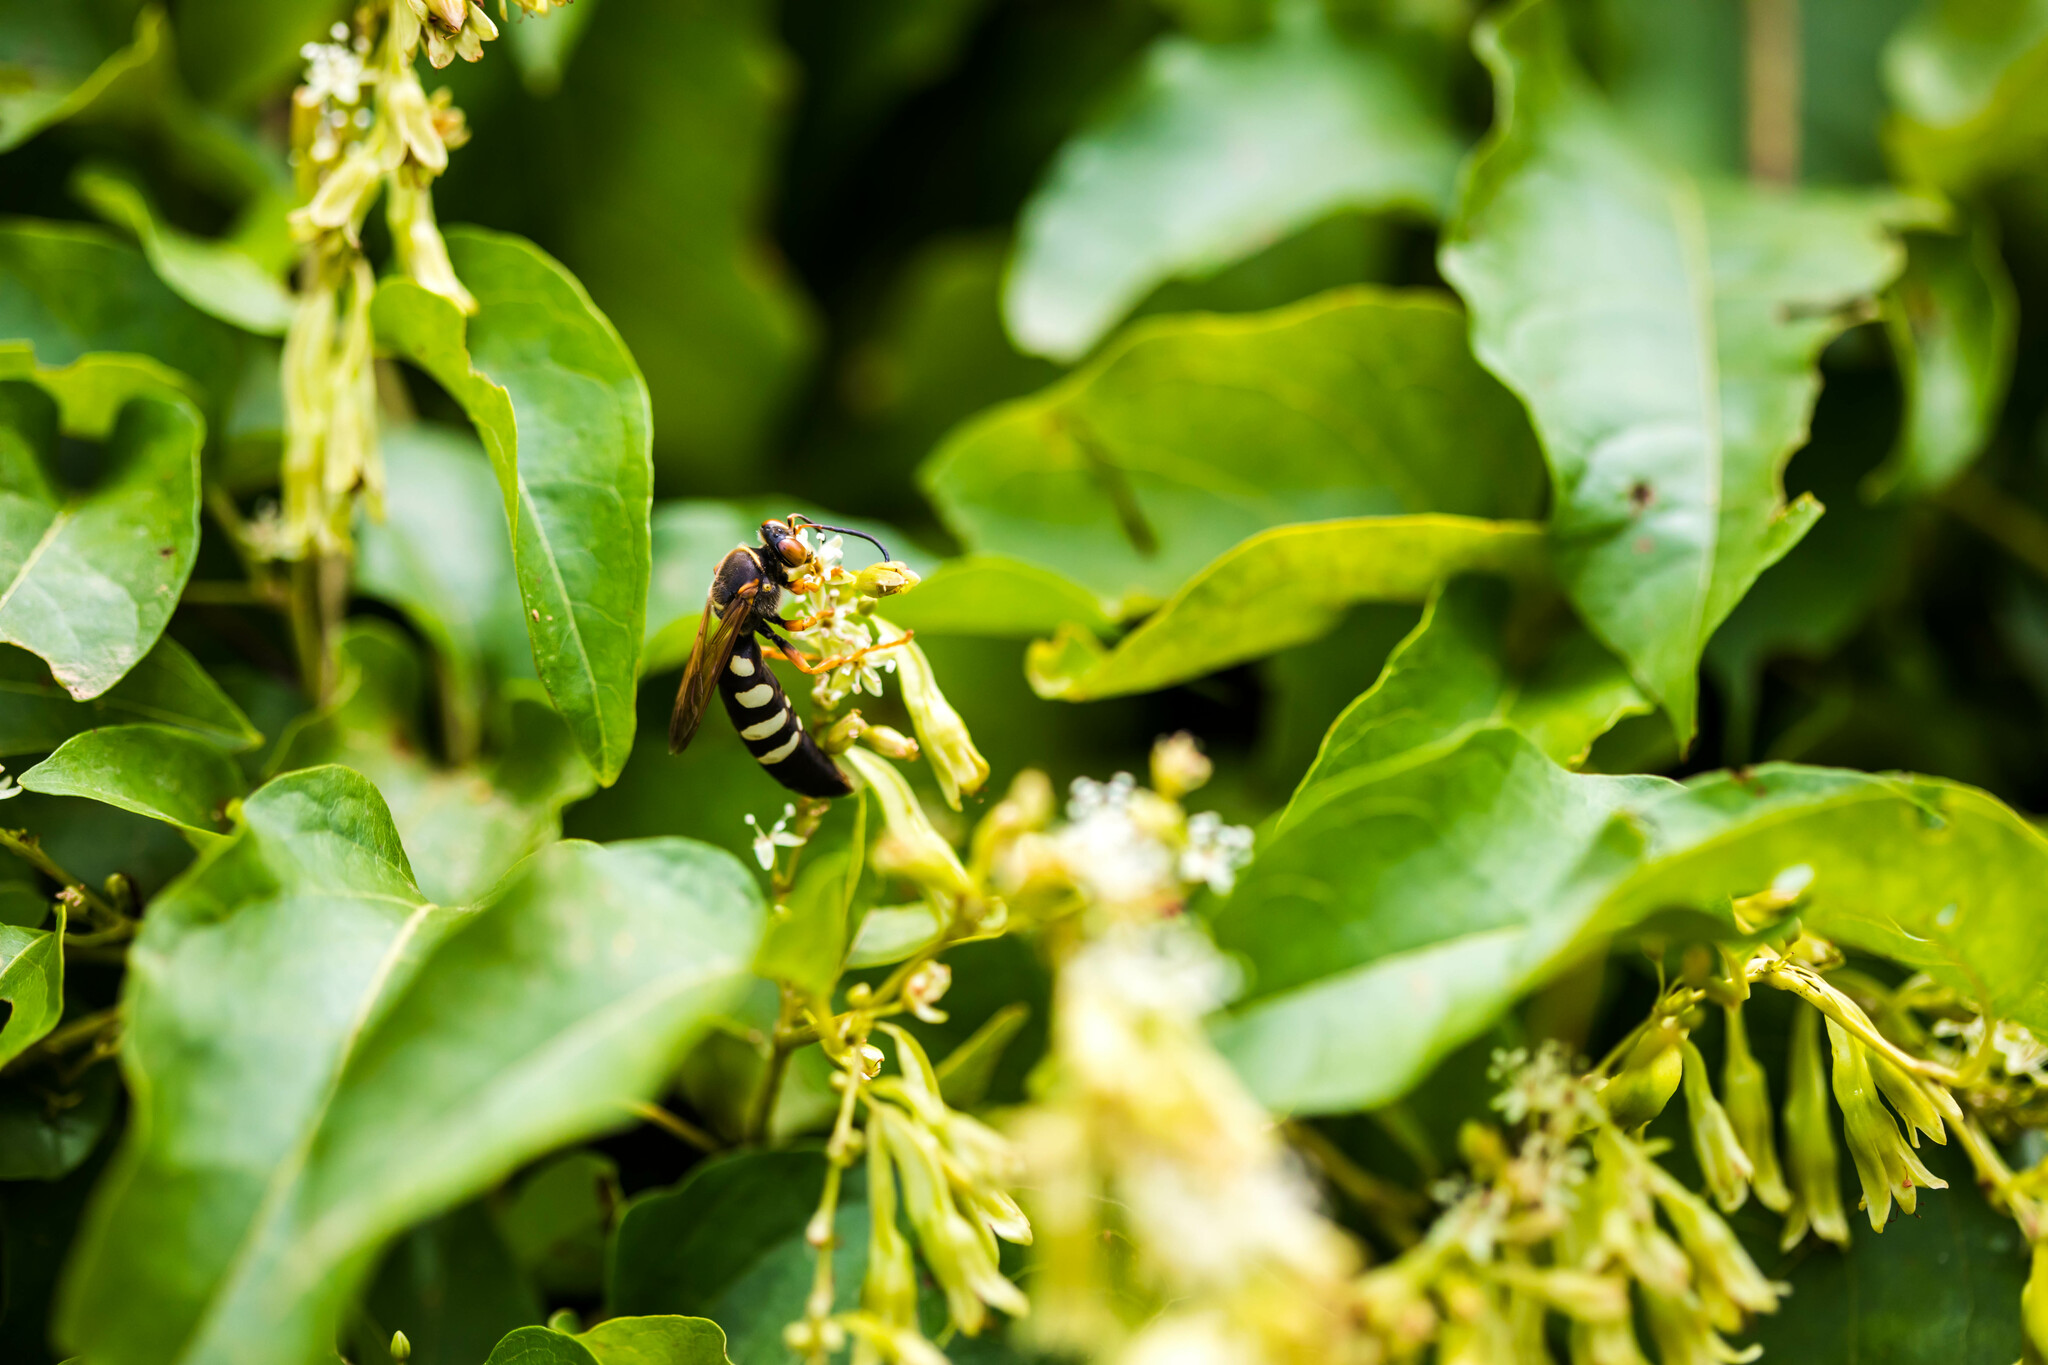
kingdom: Animalia
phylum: Arthropoda
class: Insecta
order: Hymenoptera
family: Crabronidae
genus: Stizus
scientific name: Stizus brevipennis
